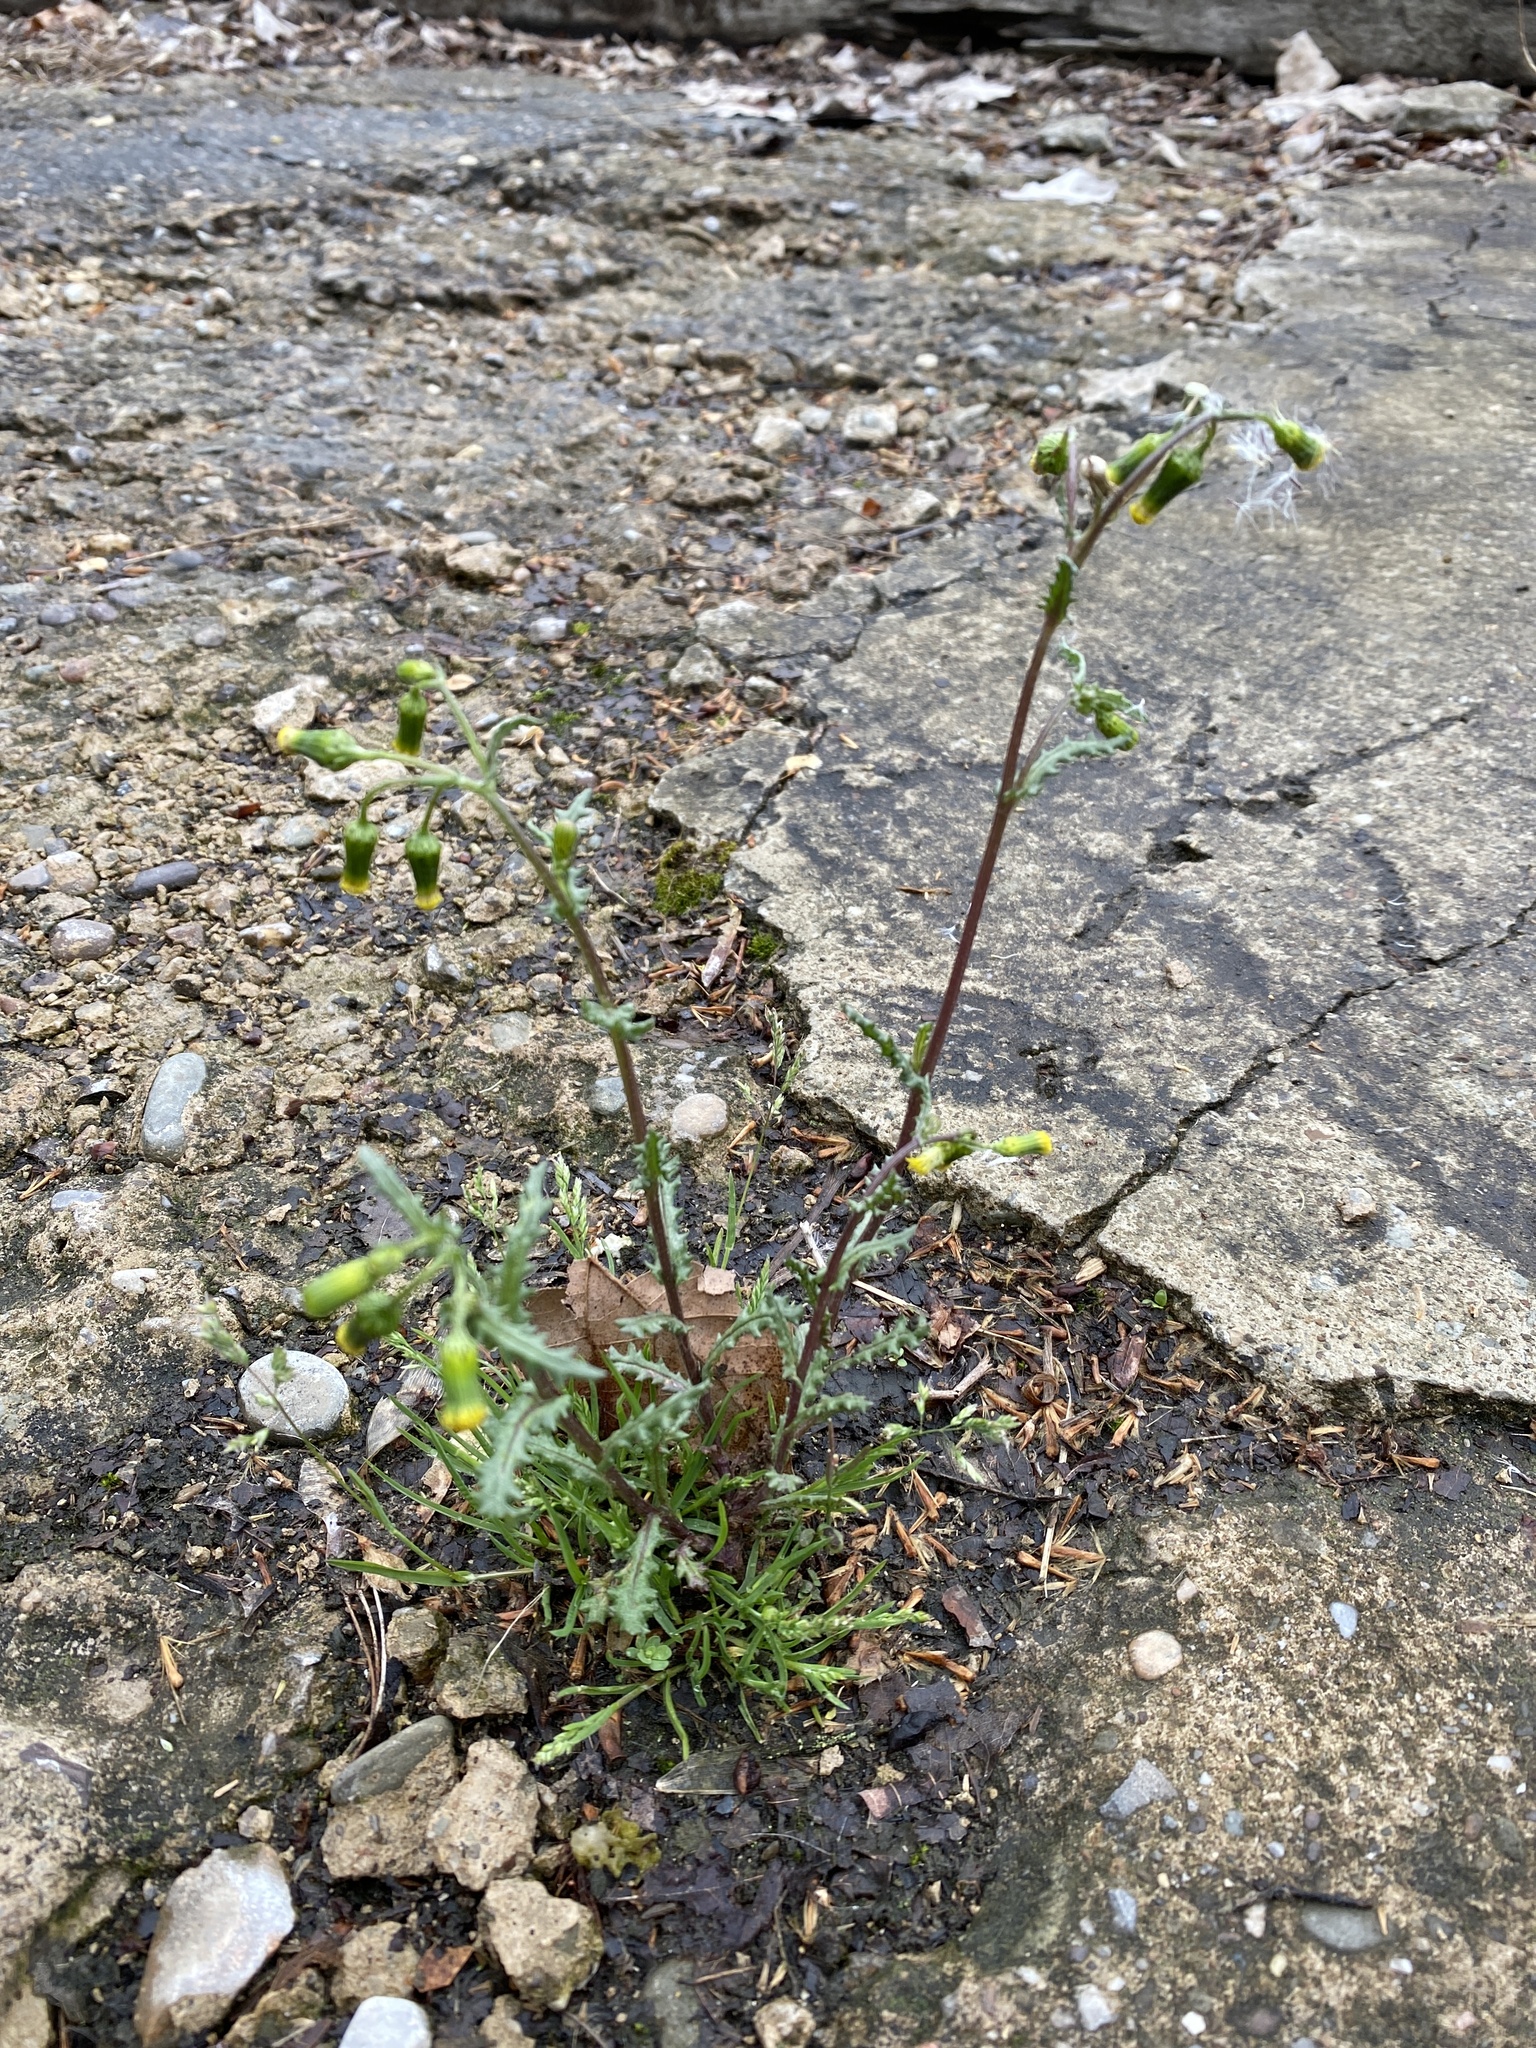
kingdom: Plantae
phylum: Tracheophyta
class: Magnoliopsida
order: Asterales
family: Asteraceae
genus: Senecio
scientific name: Senecio vulgaris
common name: Old-man-in-the-spring
